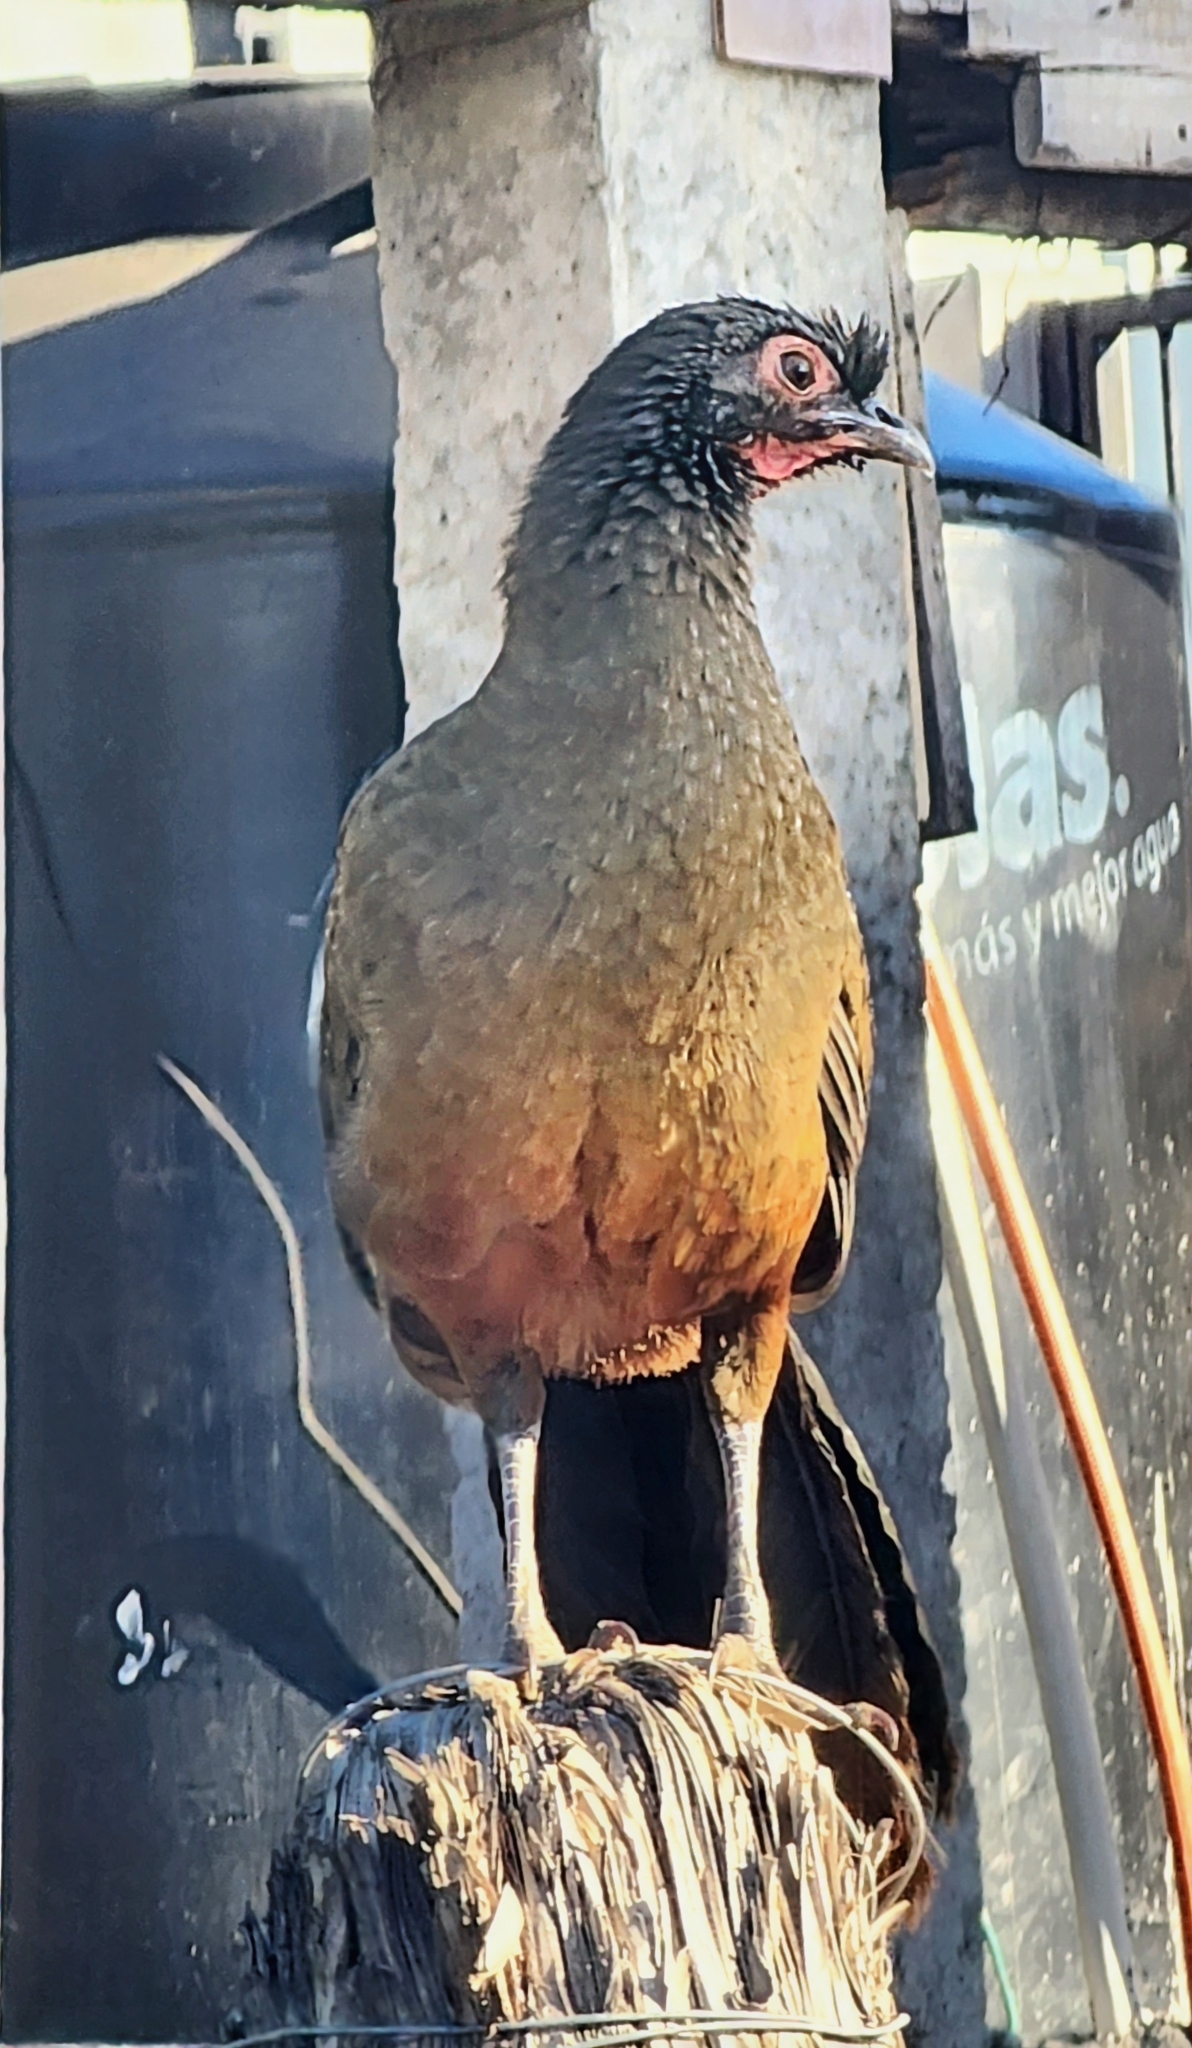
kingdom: Animalia
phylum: Chordata
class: Aves
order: Galliformes
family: Cracidae
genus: Ortalis
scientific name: Ortalis wagleri
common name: Rufous-bellied chachalaca
